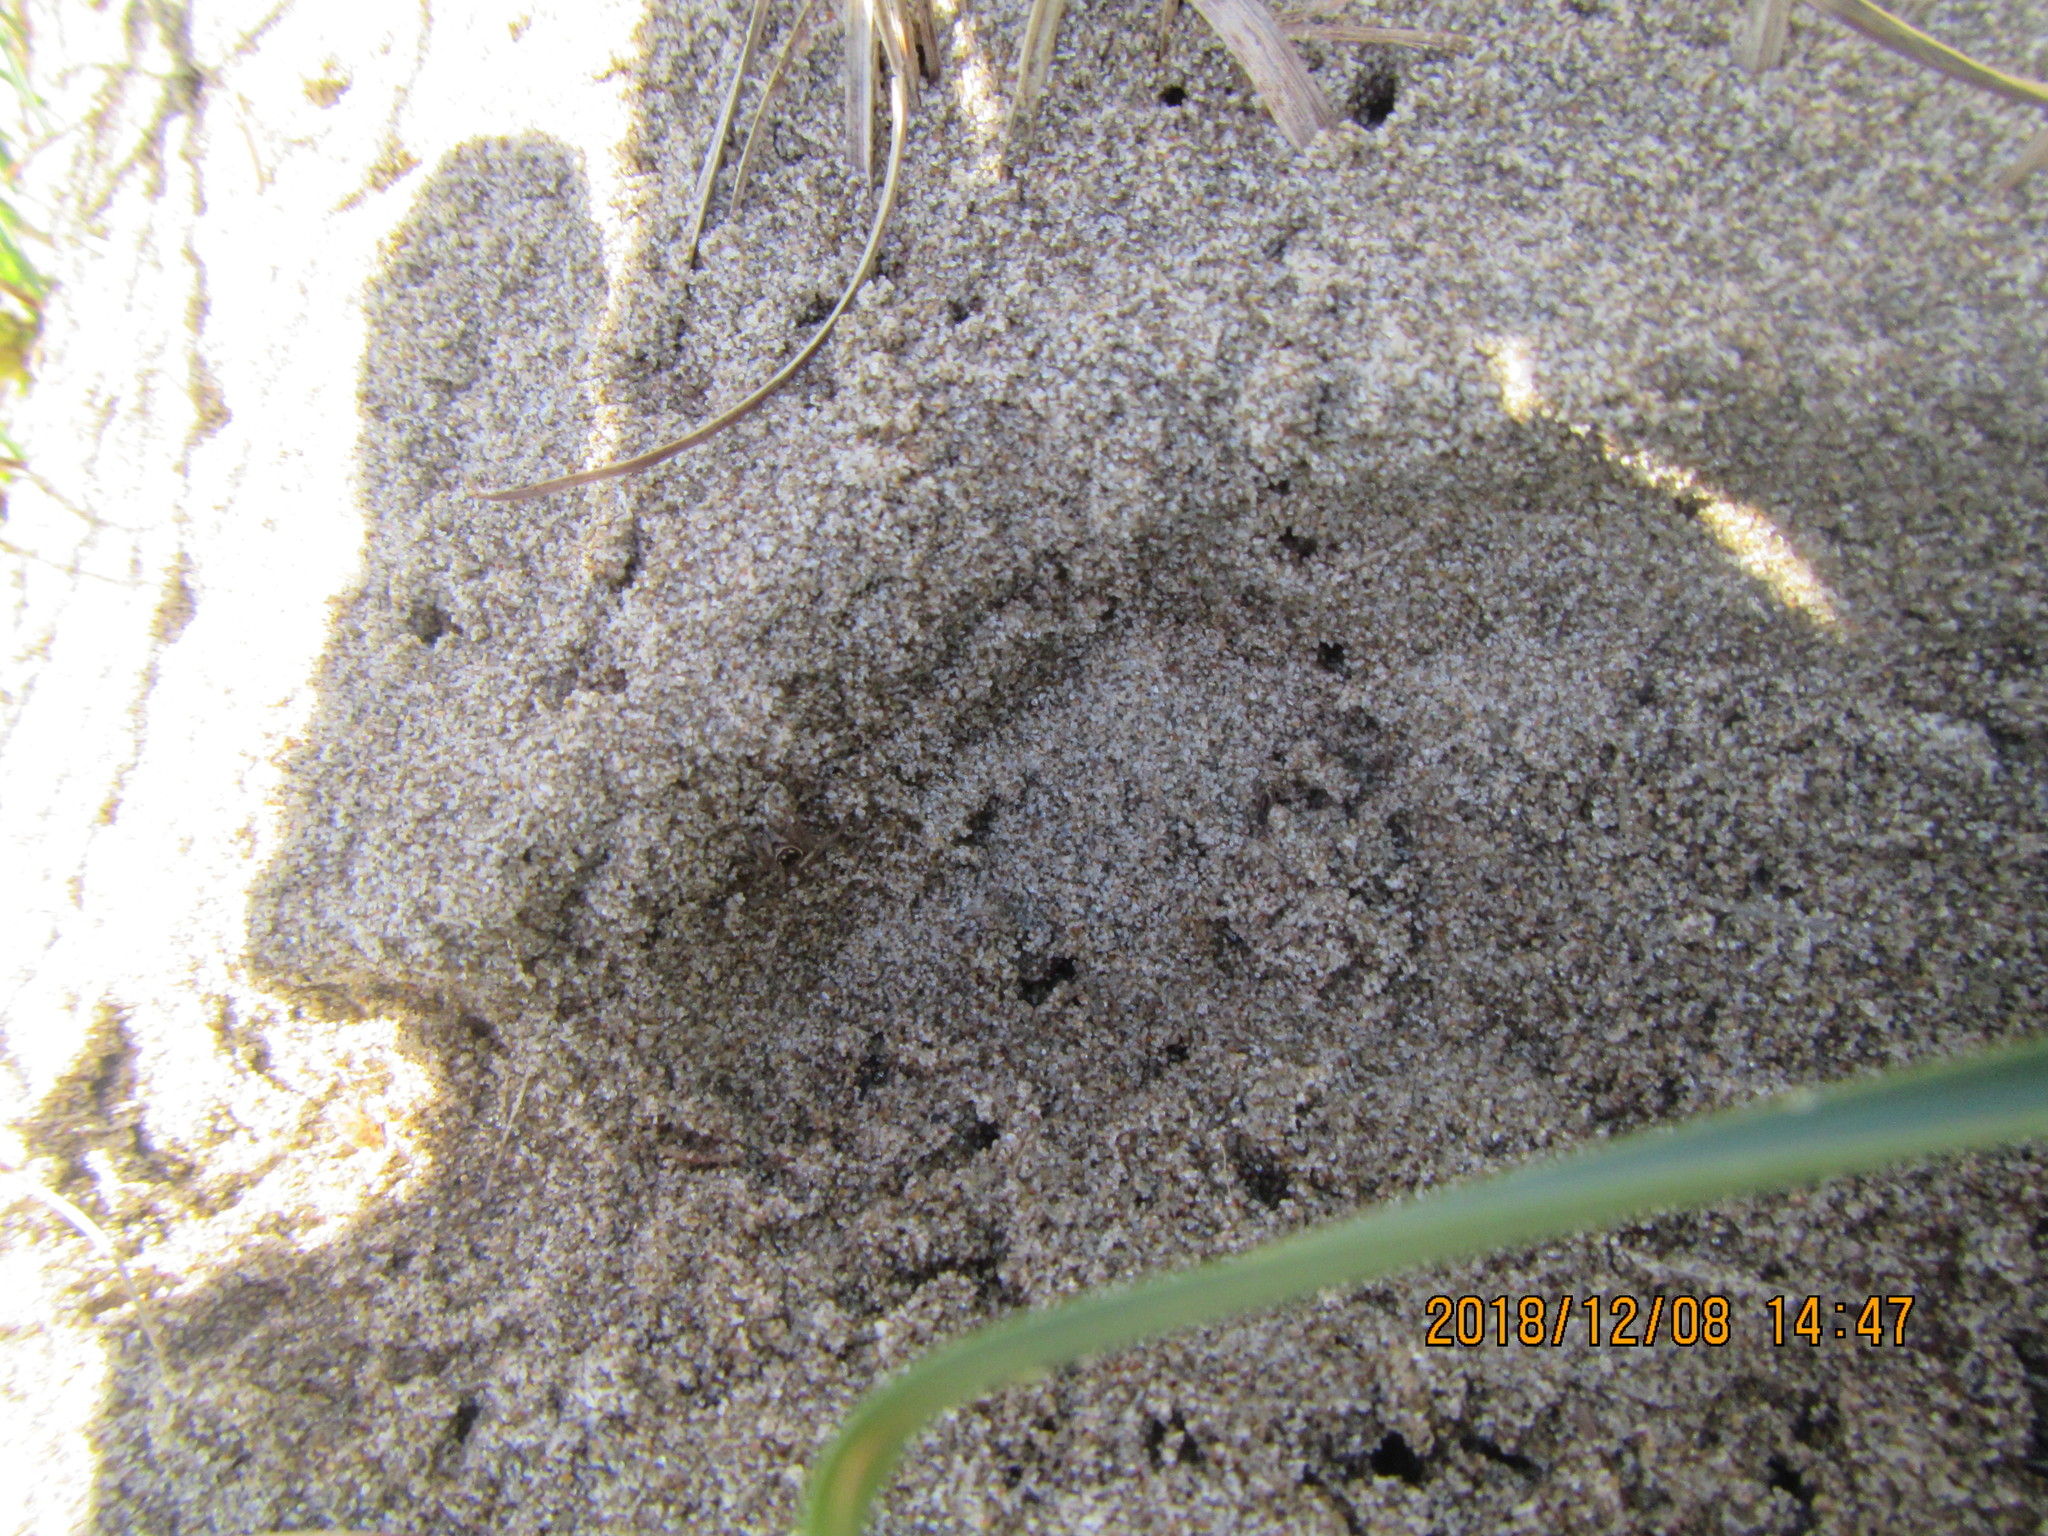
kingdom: Animalia
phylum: Arthropoda
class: Arachnida
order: Araneae
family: Salticidae
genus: Maratus
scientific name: Maratus griseus
